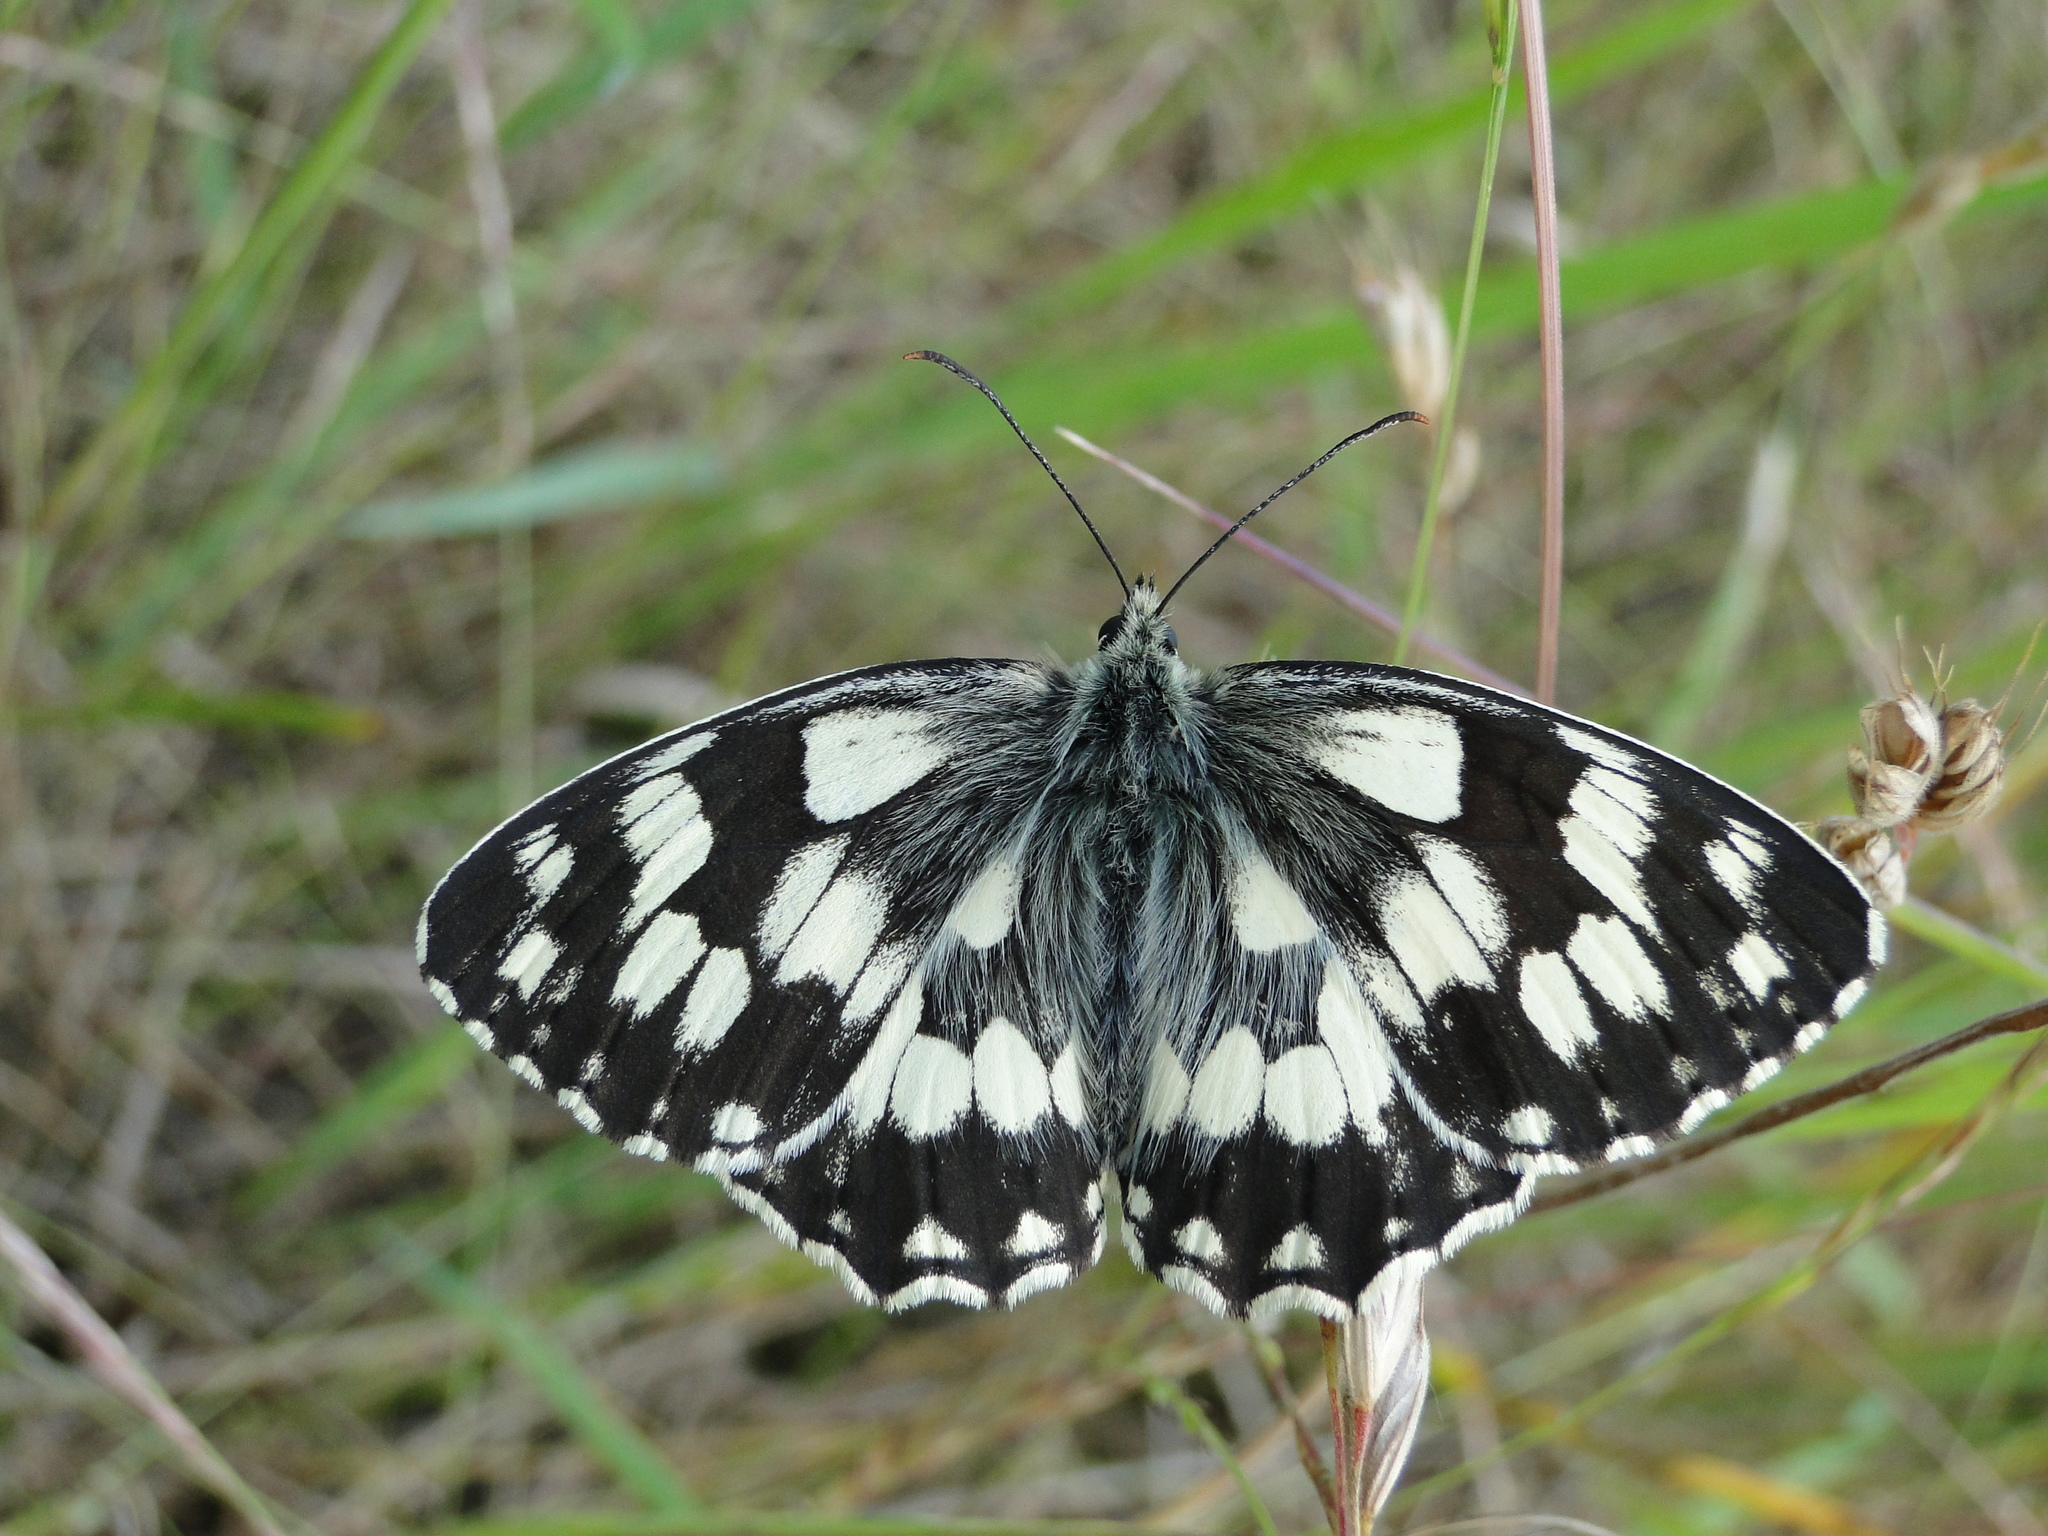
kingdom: Animalia
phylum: Arthropoda
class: Insecta
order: Lepidoptera
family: Nymphalidae
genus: Melanargia
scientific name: Melanargia galathea
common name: Marbled white
